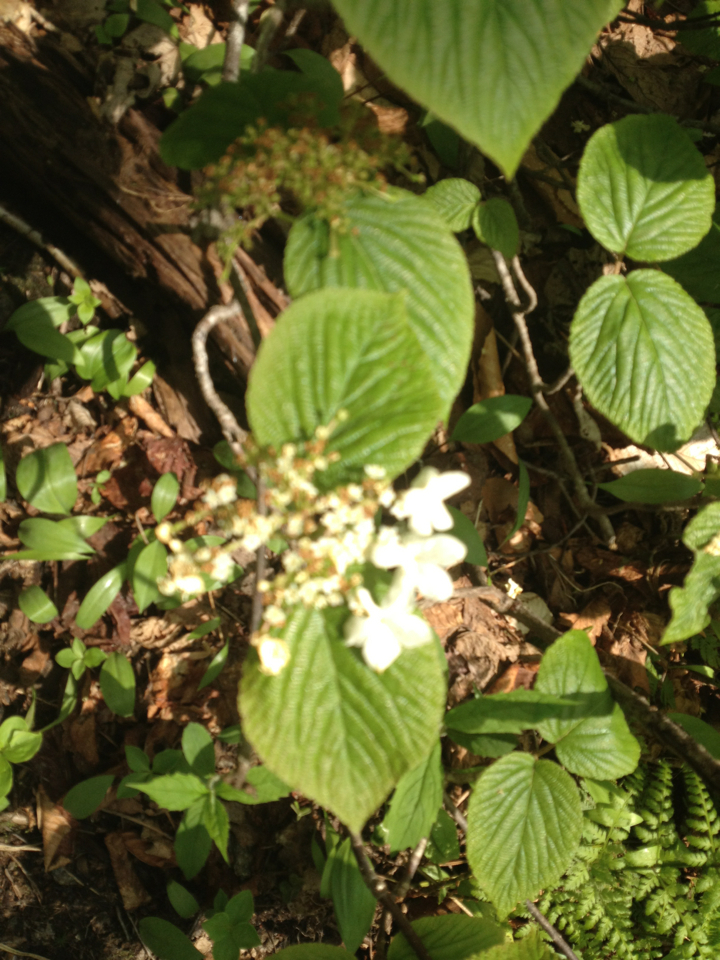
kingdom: Plantae
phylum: Tracheophyta
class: Magnoliopsida
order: Dipsacales
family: Viburnaceae
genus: Viburnum
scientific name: Viburnum lantanoides
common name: Hobblebush
